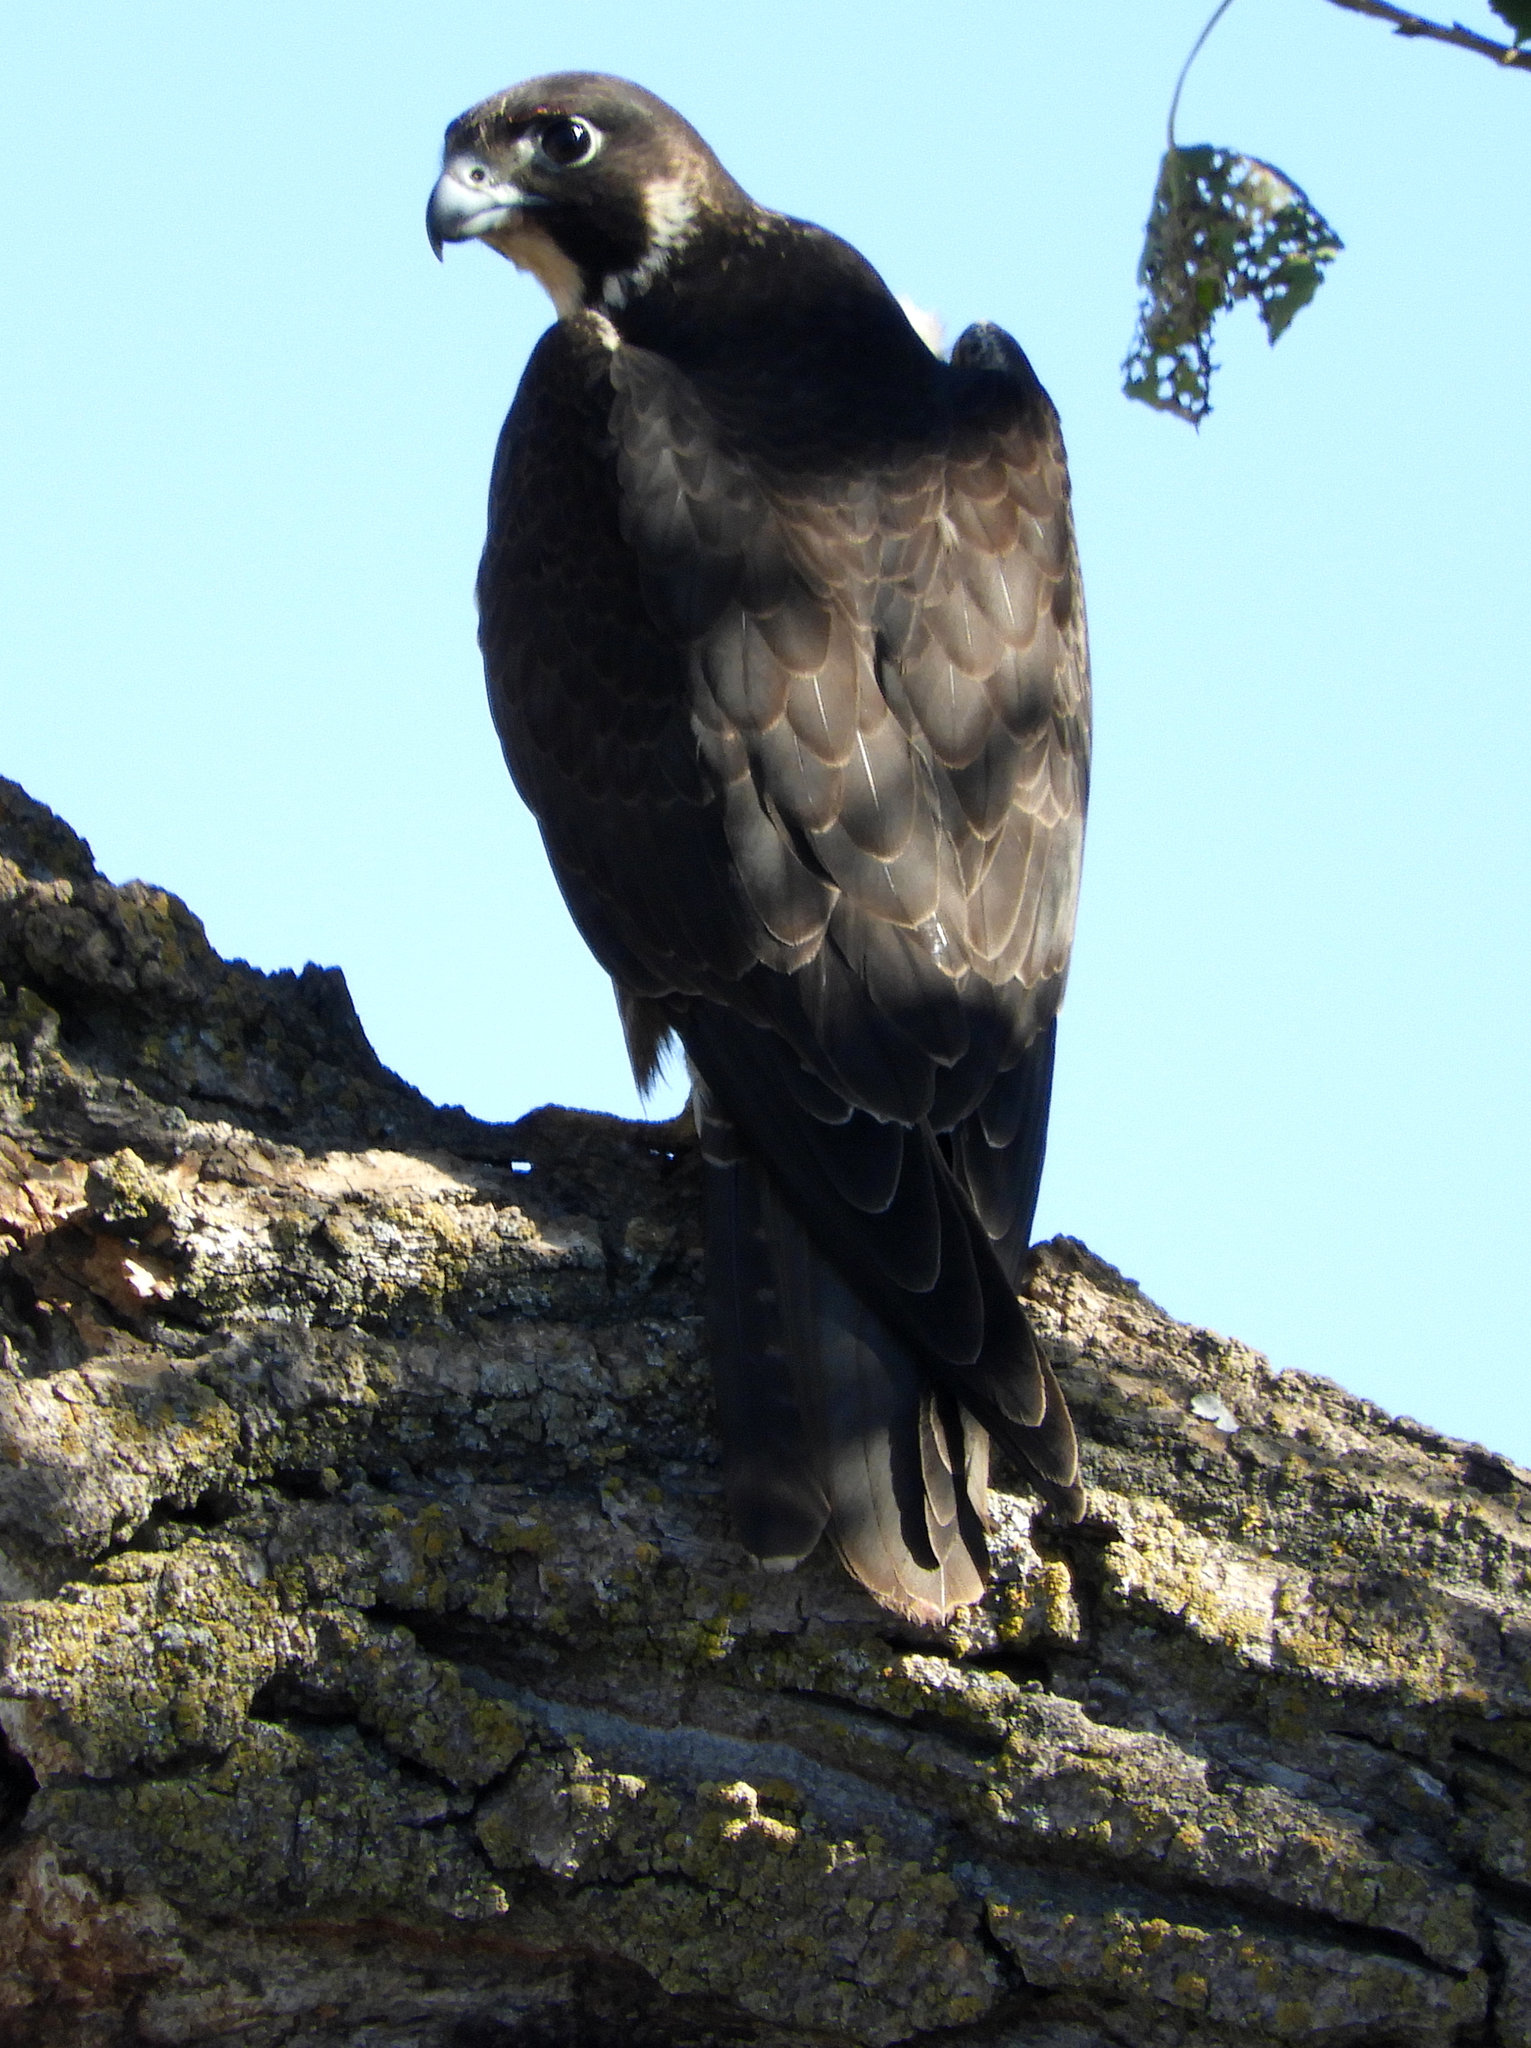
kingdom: Animalia
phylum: Chordata
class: Aves
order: Falconiformes
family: Falconidae
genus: Falco
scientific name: Falco peregrinus
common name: Peregrine falcon
